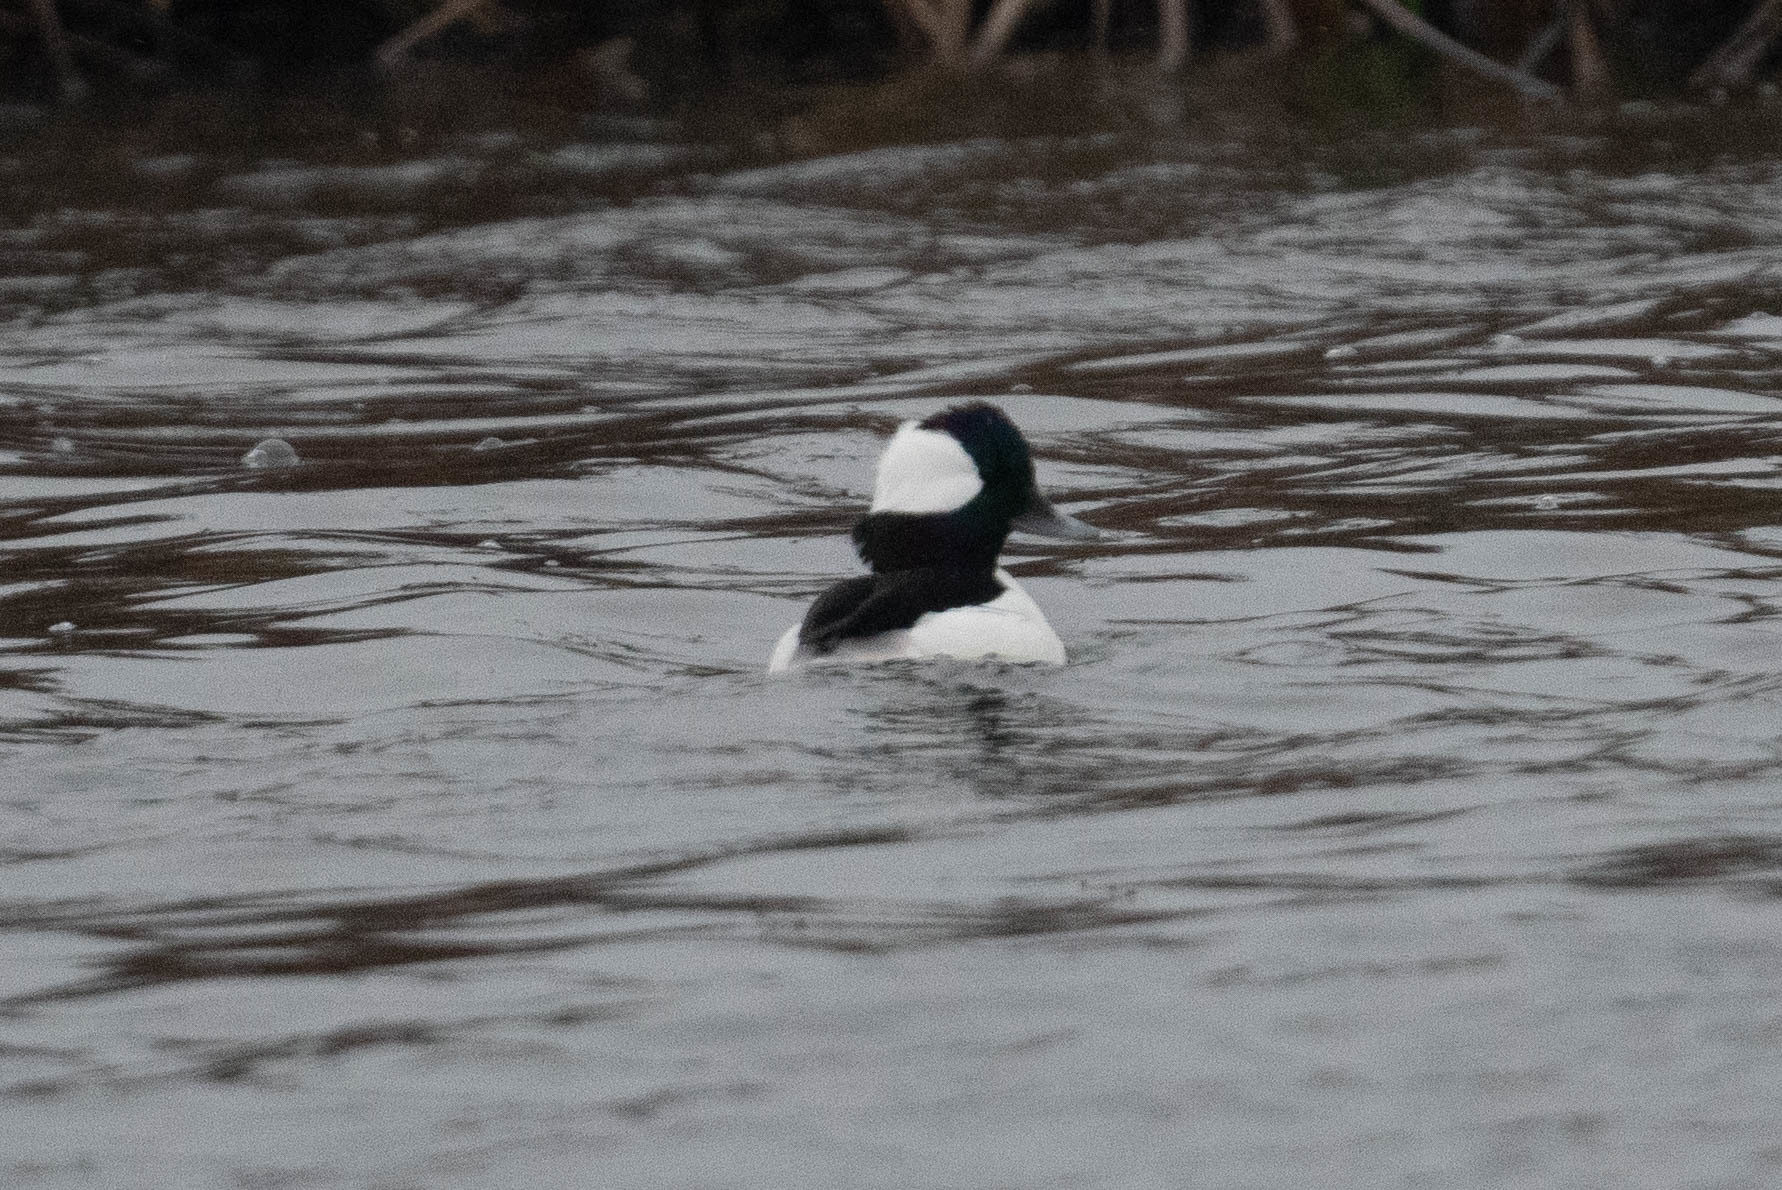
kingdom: Animalia
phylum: Chordata
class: Aves
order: Anseriformes
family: Anatidae
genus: Bucephala
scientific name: Bucephala albeola
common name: Bufflehead
